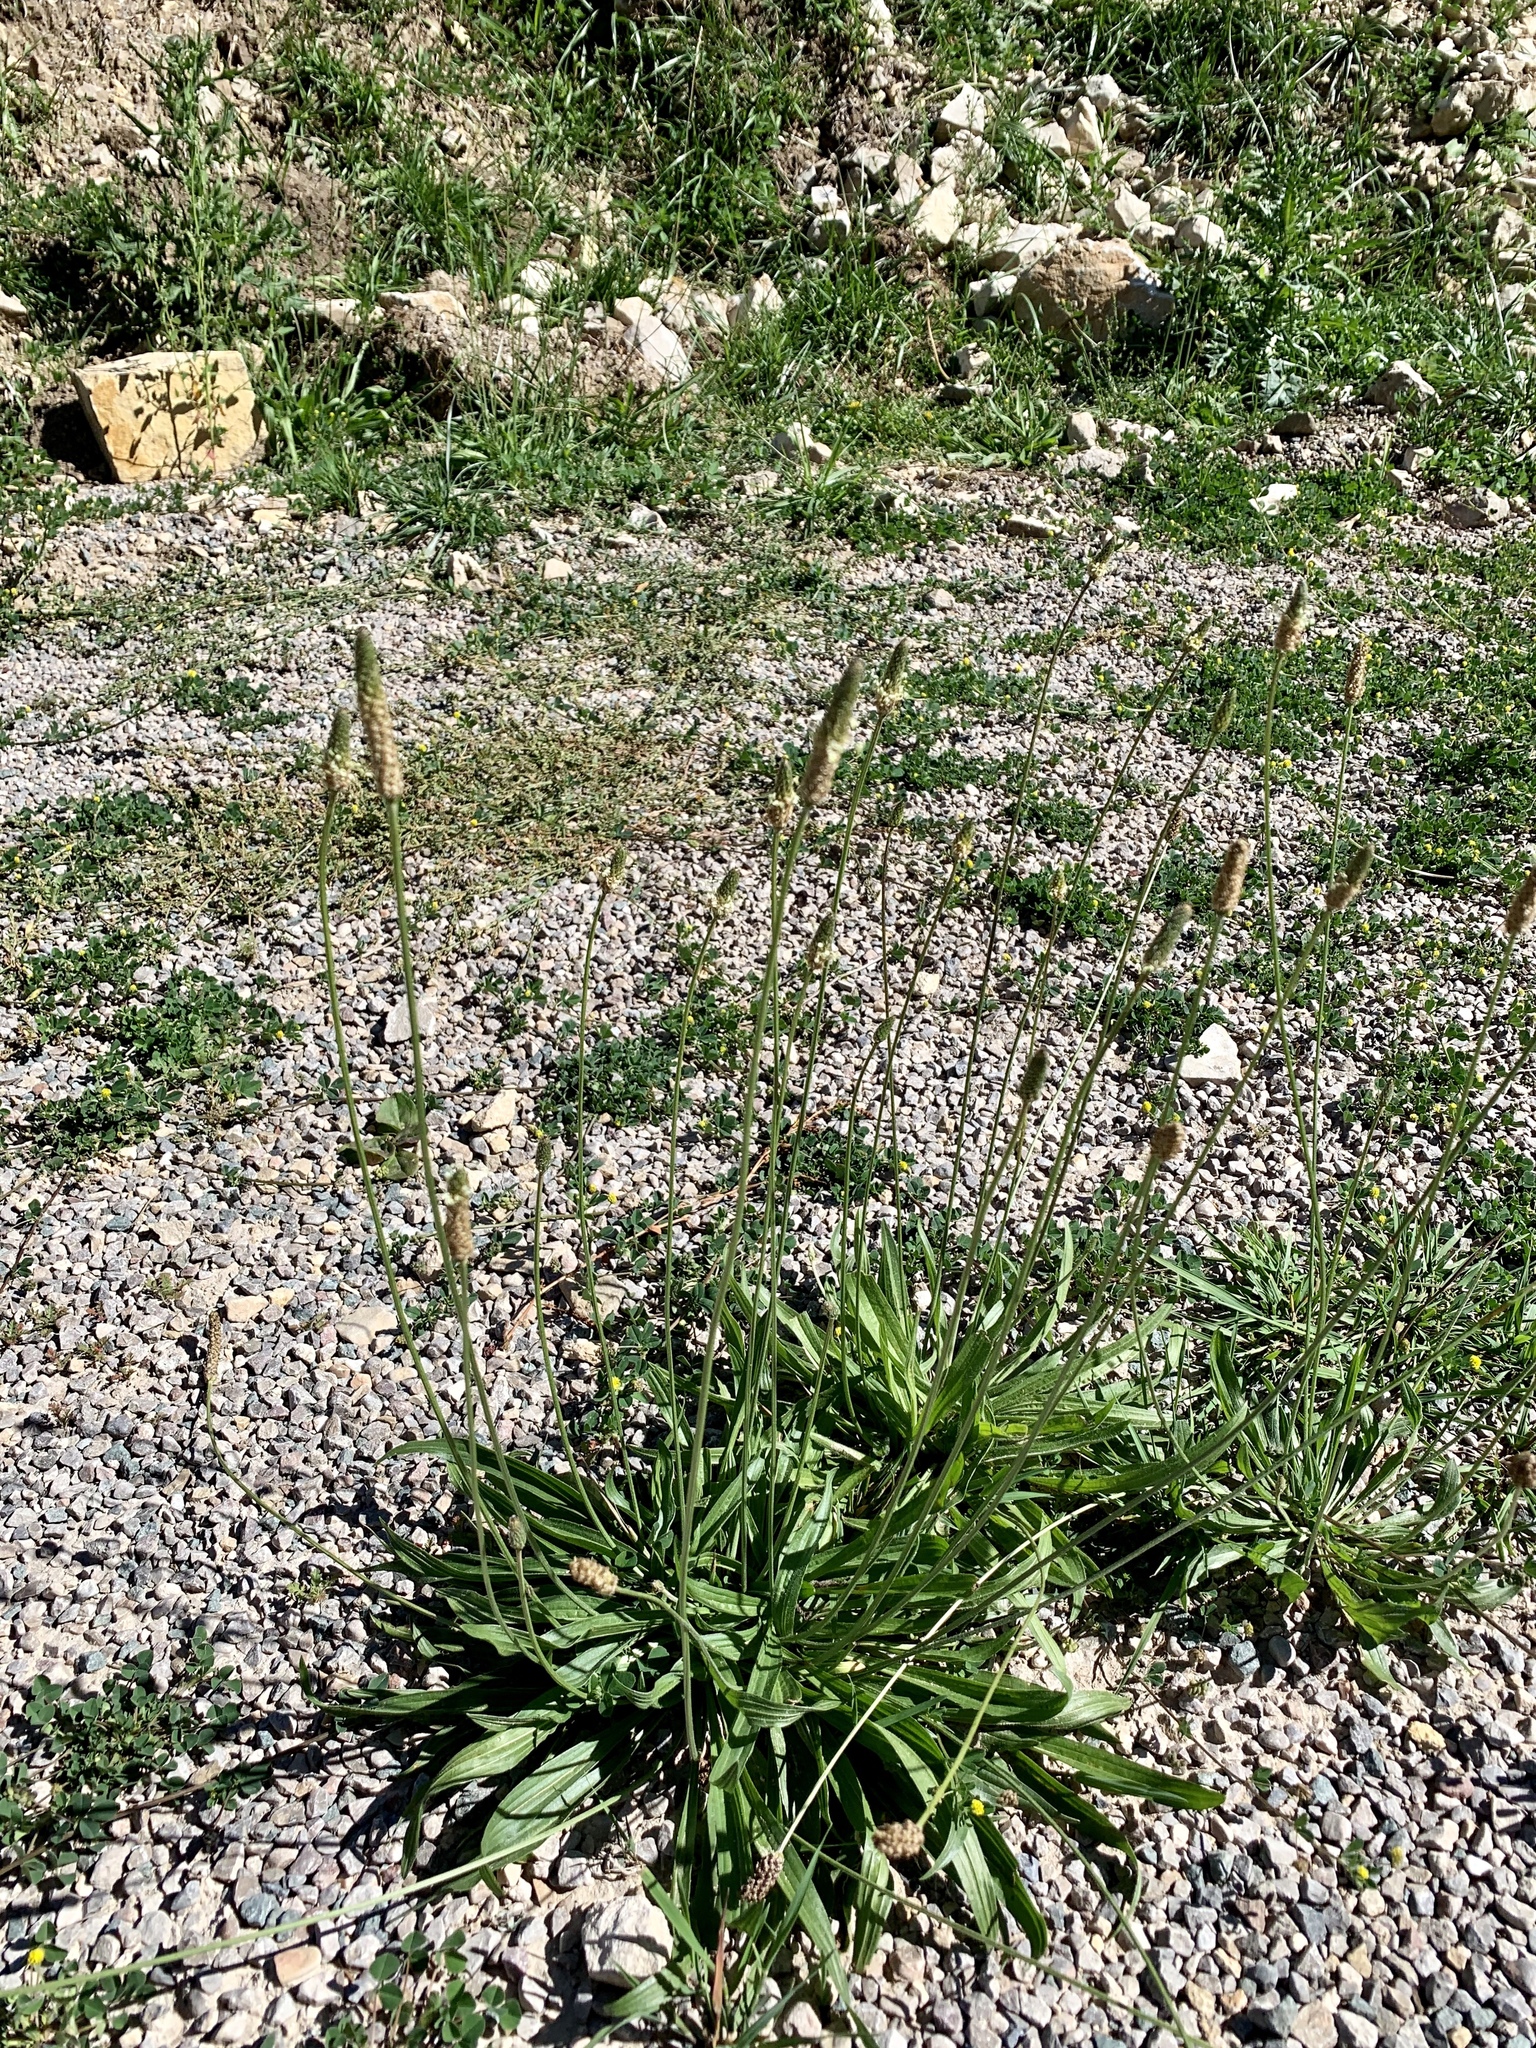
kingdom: Plantae
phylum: Tracheophyta
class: Magnoliopsida
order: Lamiales
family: Plantaginaceae
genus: Plantago
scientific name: Plantago lanceolata
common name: Ribwort plantain
